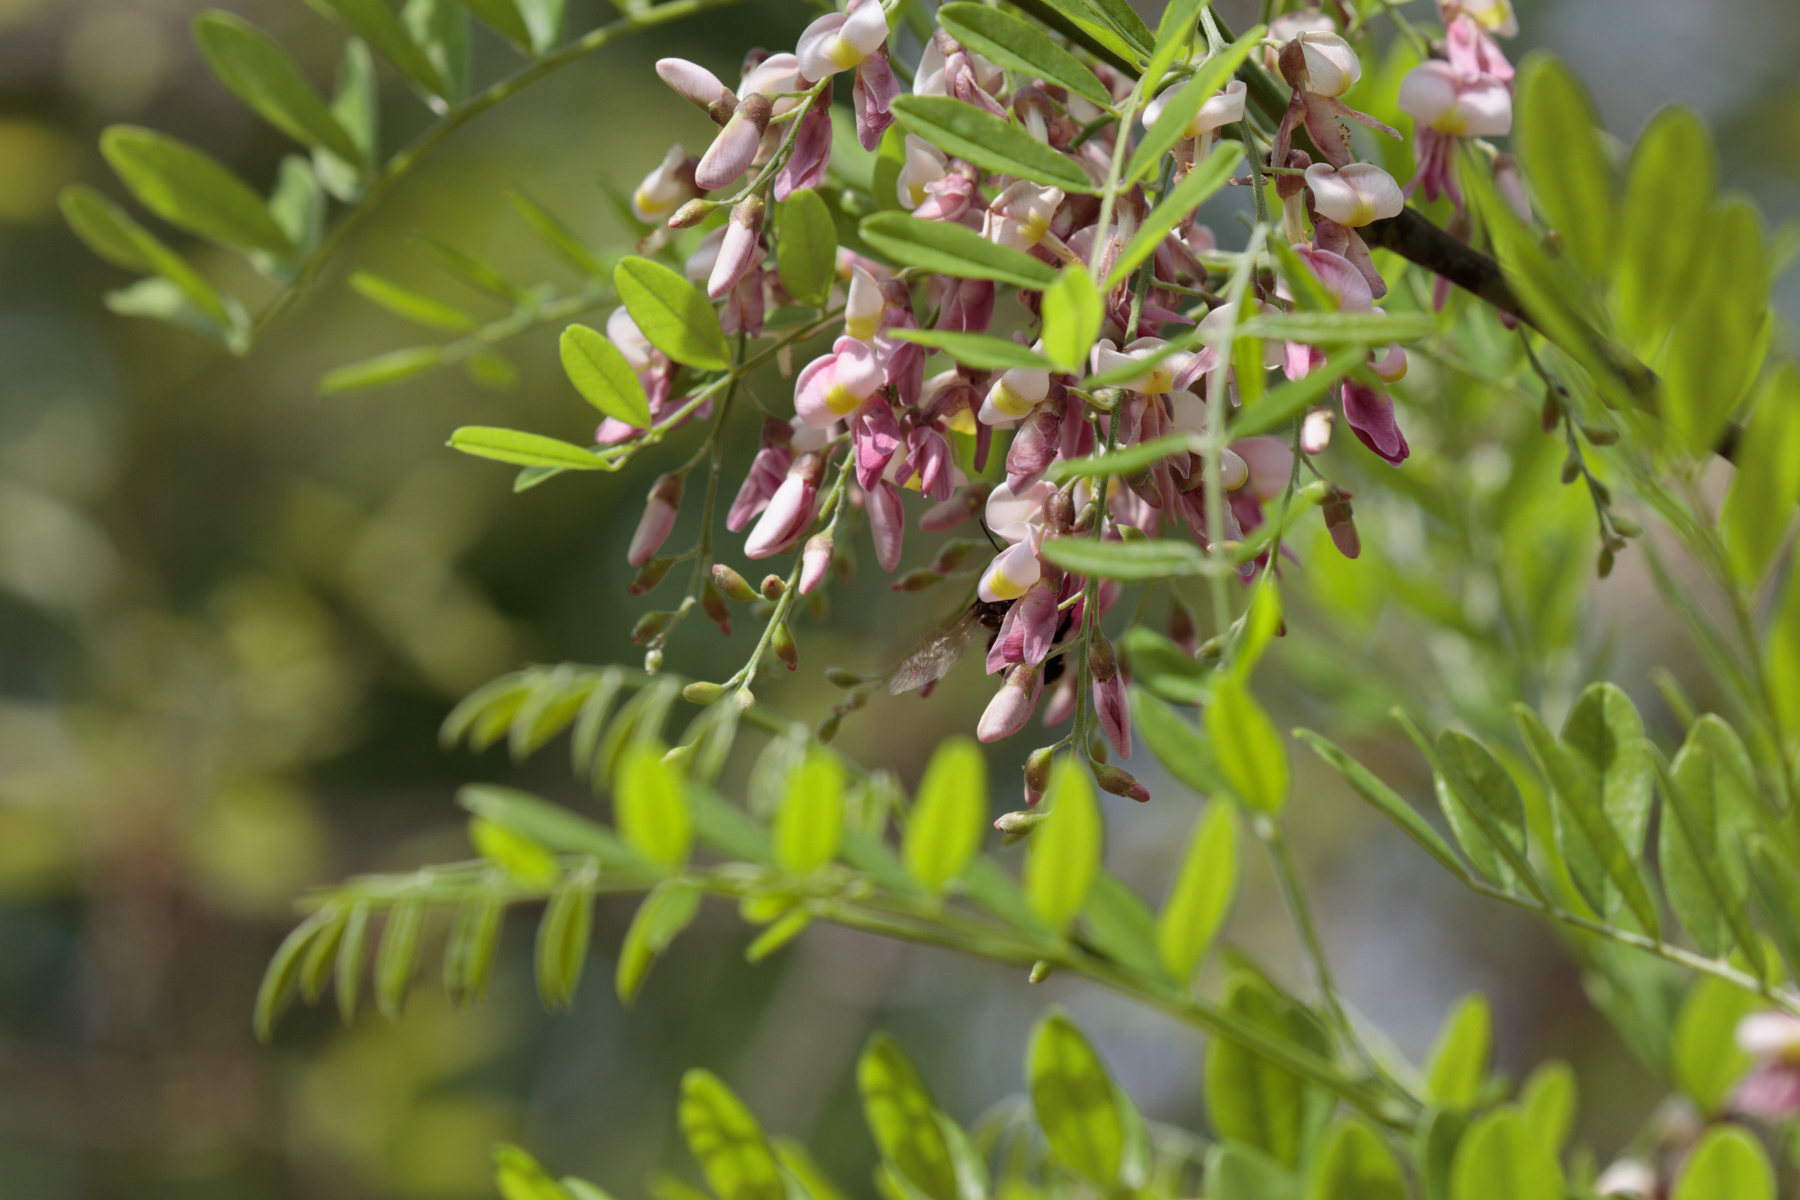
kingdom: Plantae
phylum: Tracheophyta
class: Magnoliopsida
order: Fabales
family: Fabaceae
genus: Styphnolobium
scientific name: Styphnolobium affine
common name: Texas sophora
